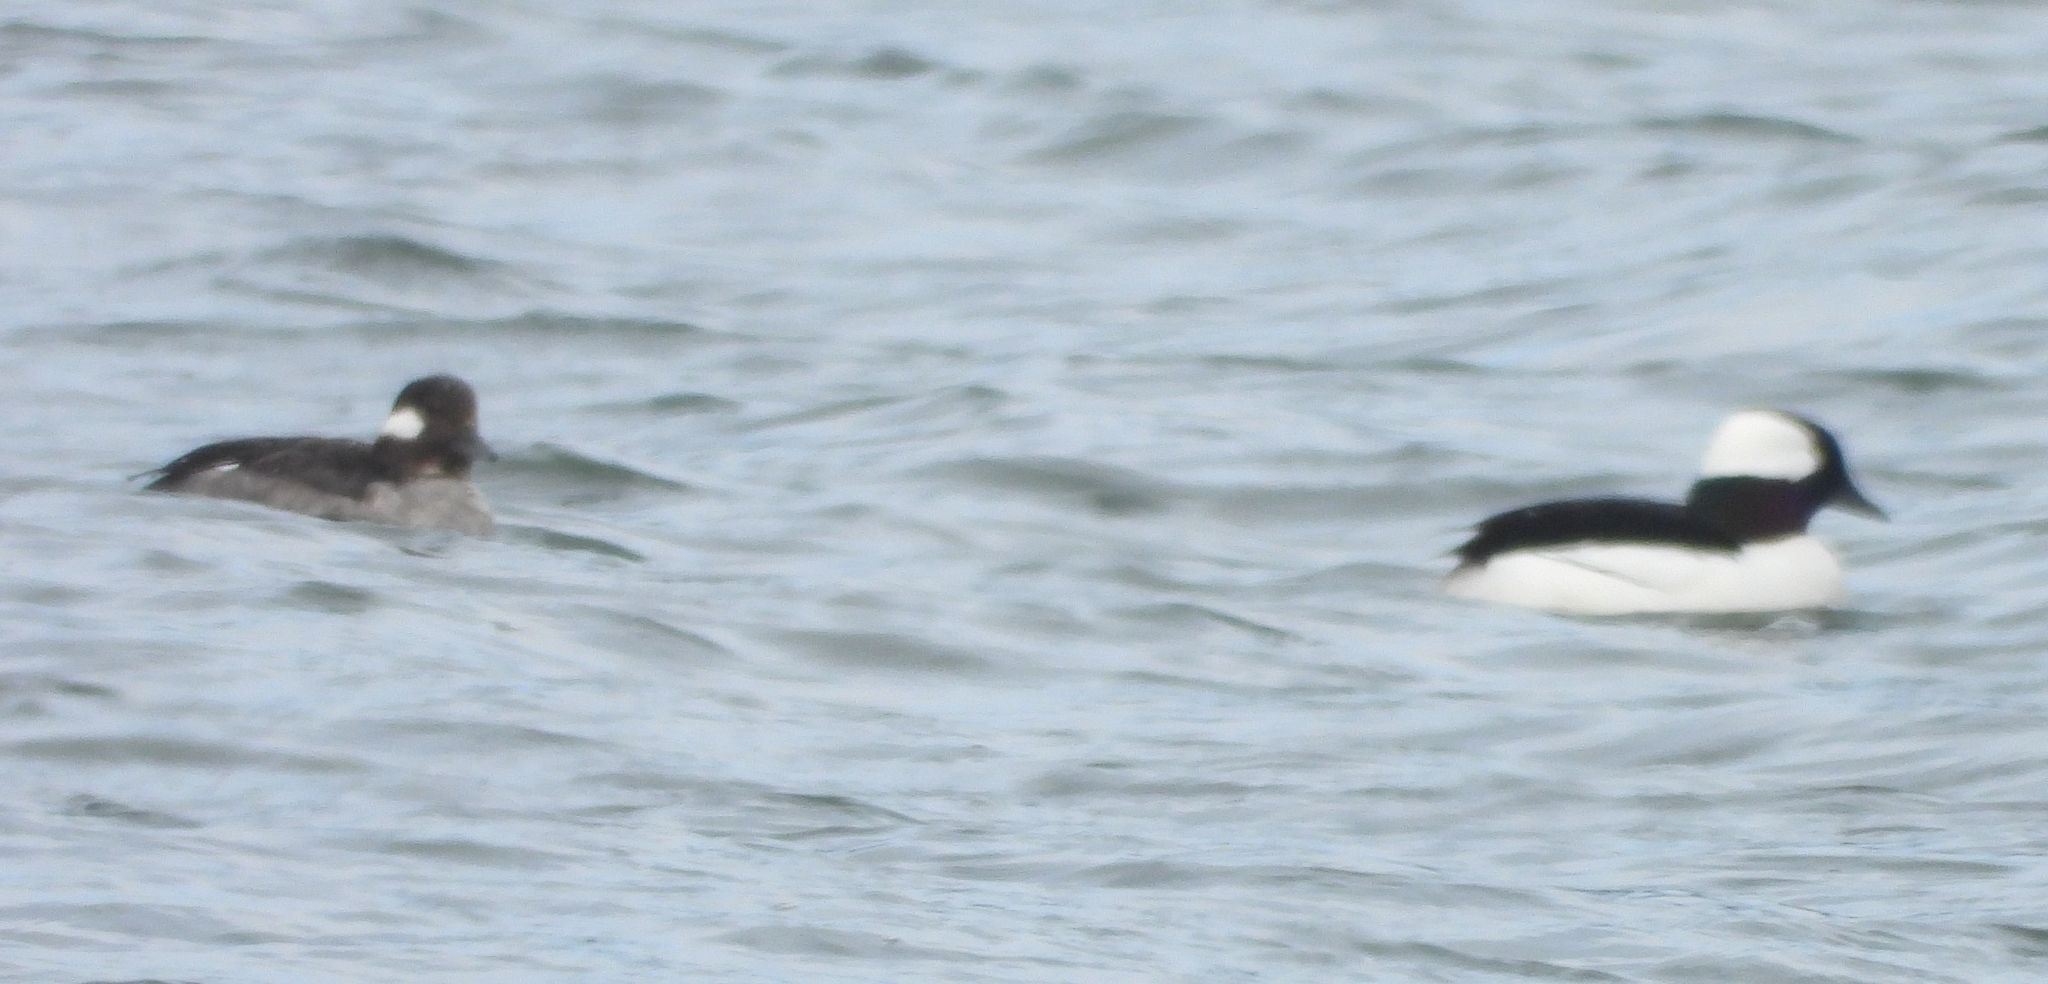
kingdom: Animalia
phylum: Chordata
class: Aves
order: Anseriformes
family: Anatidae
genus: Bucephala
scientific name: Bucephala albeola
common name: Bufflehead
